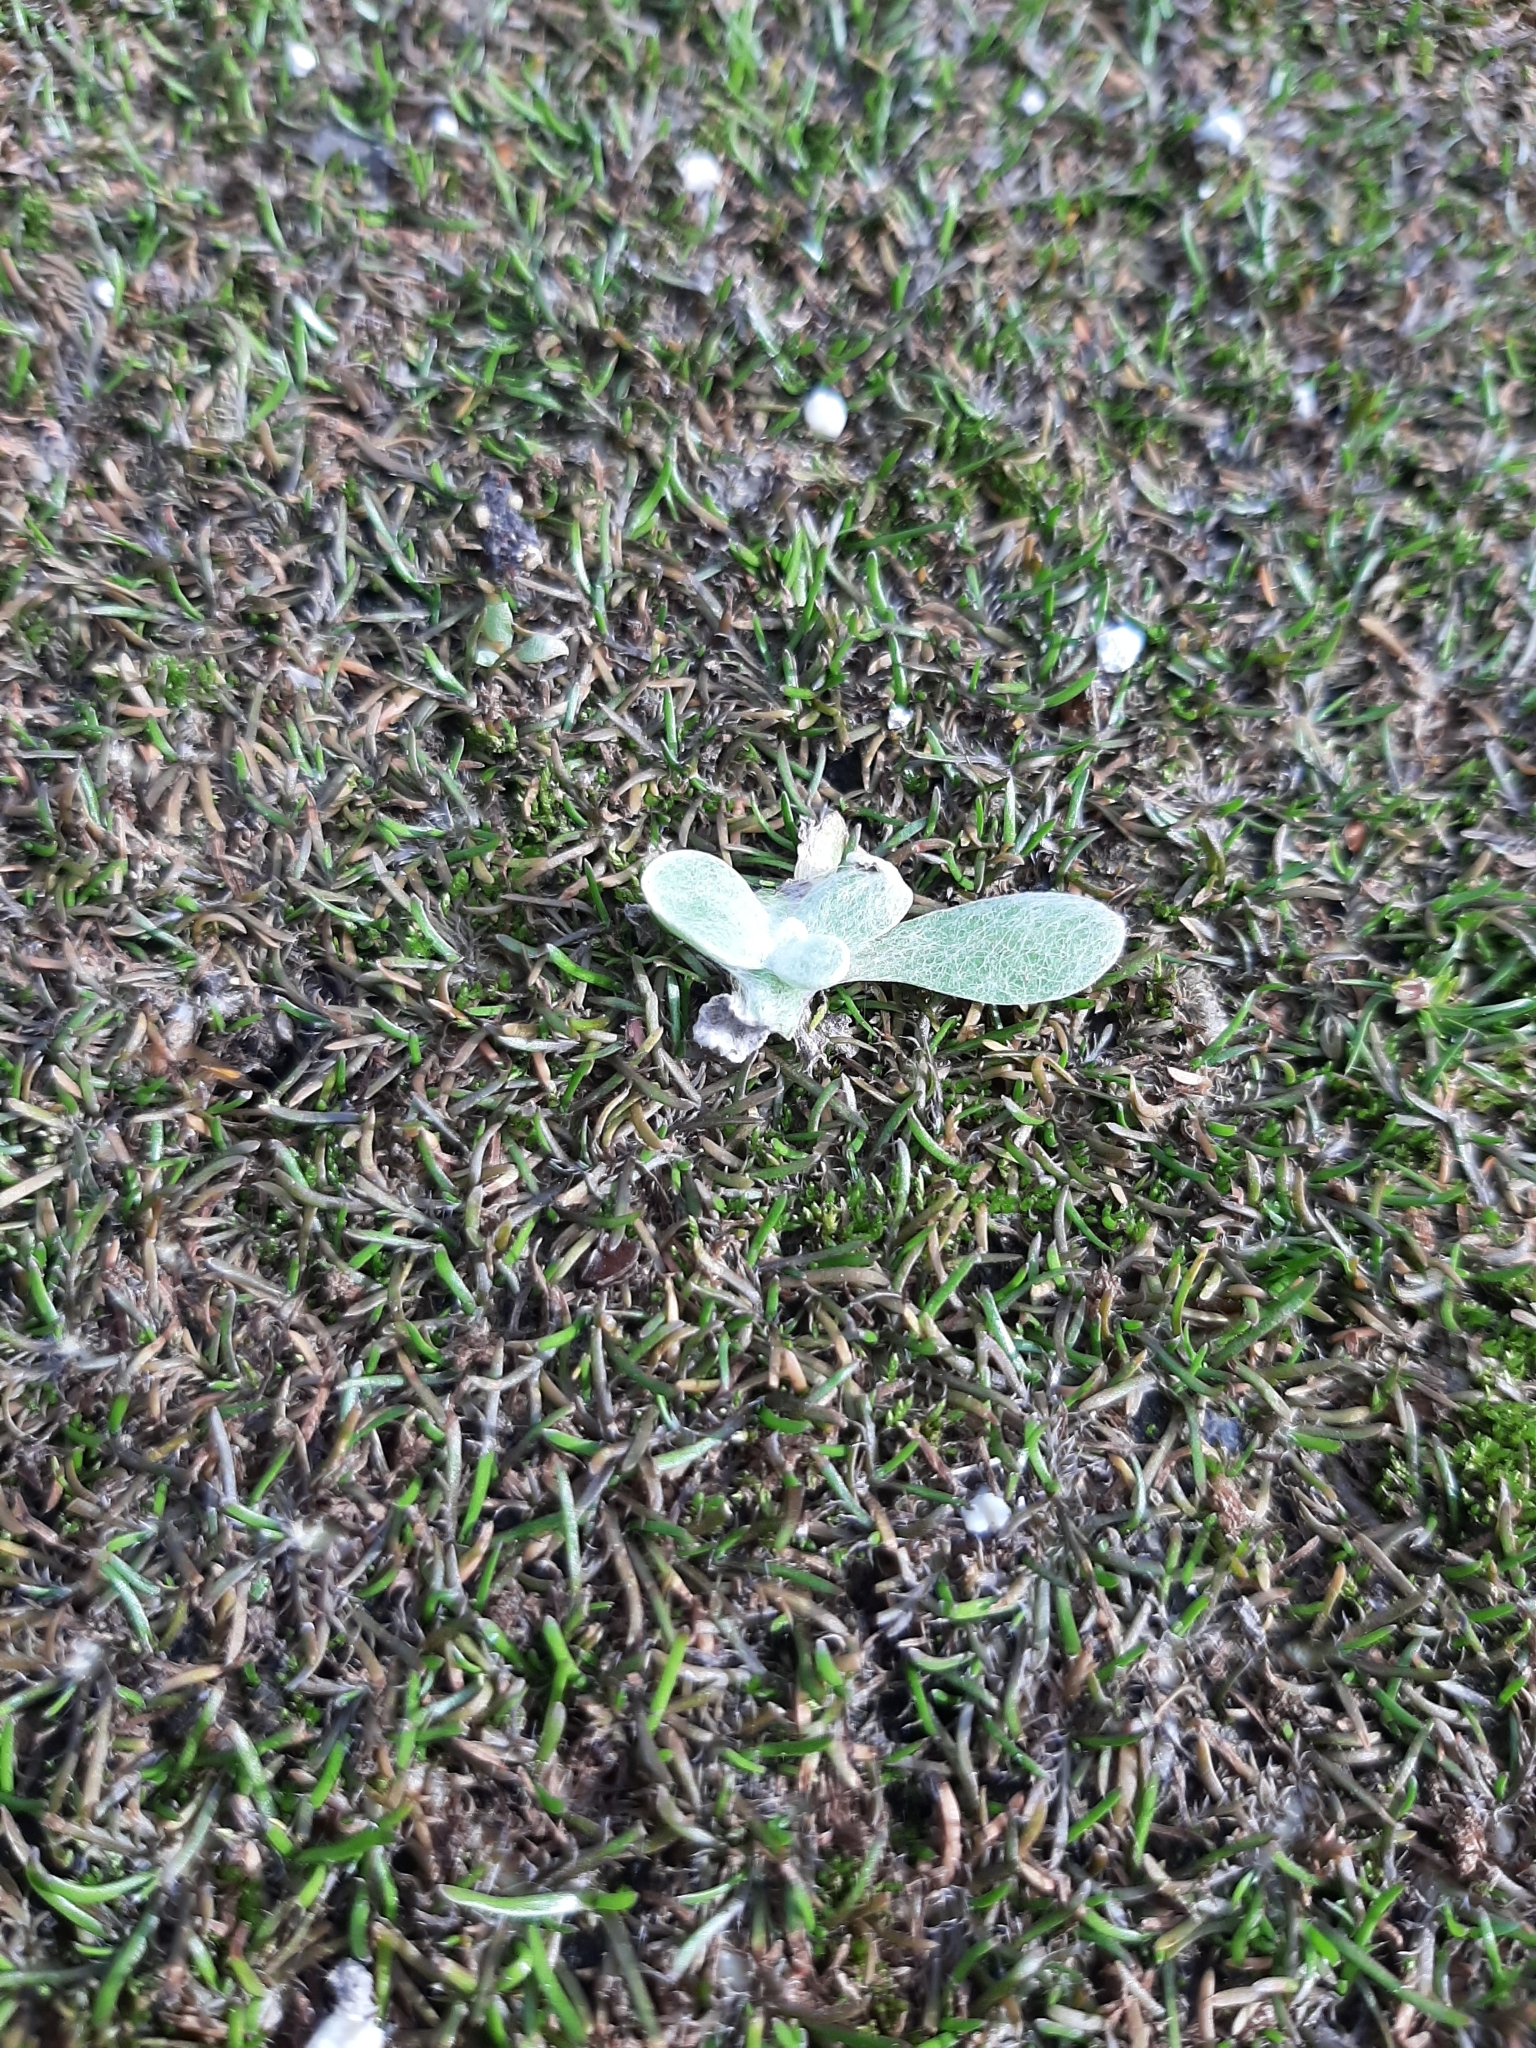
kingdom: Plantae
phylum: Tracheophyta
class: Magnoliopsida
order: Asterales
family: Asteraceae
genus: Helichrysum
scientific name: Helichrysum luteoalbum
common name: Daisy
